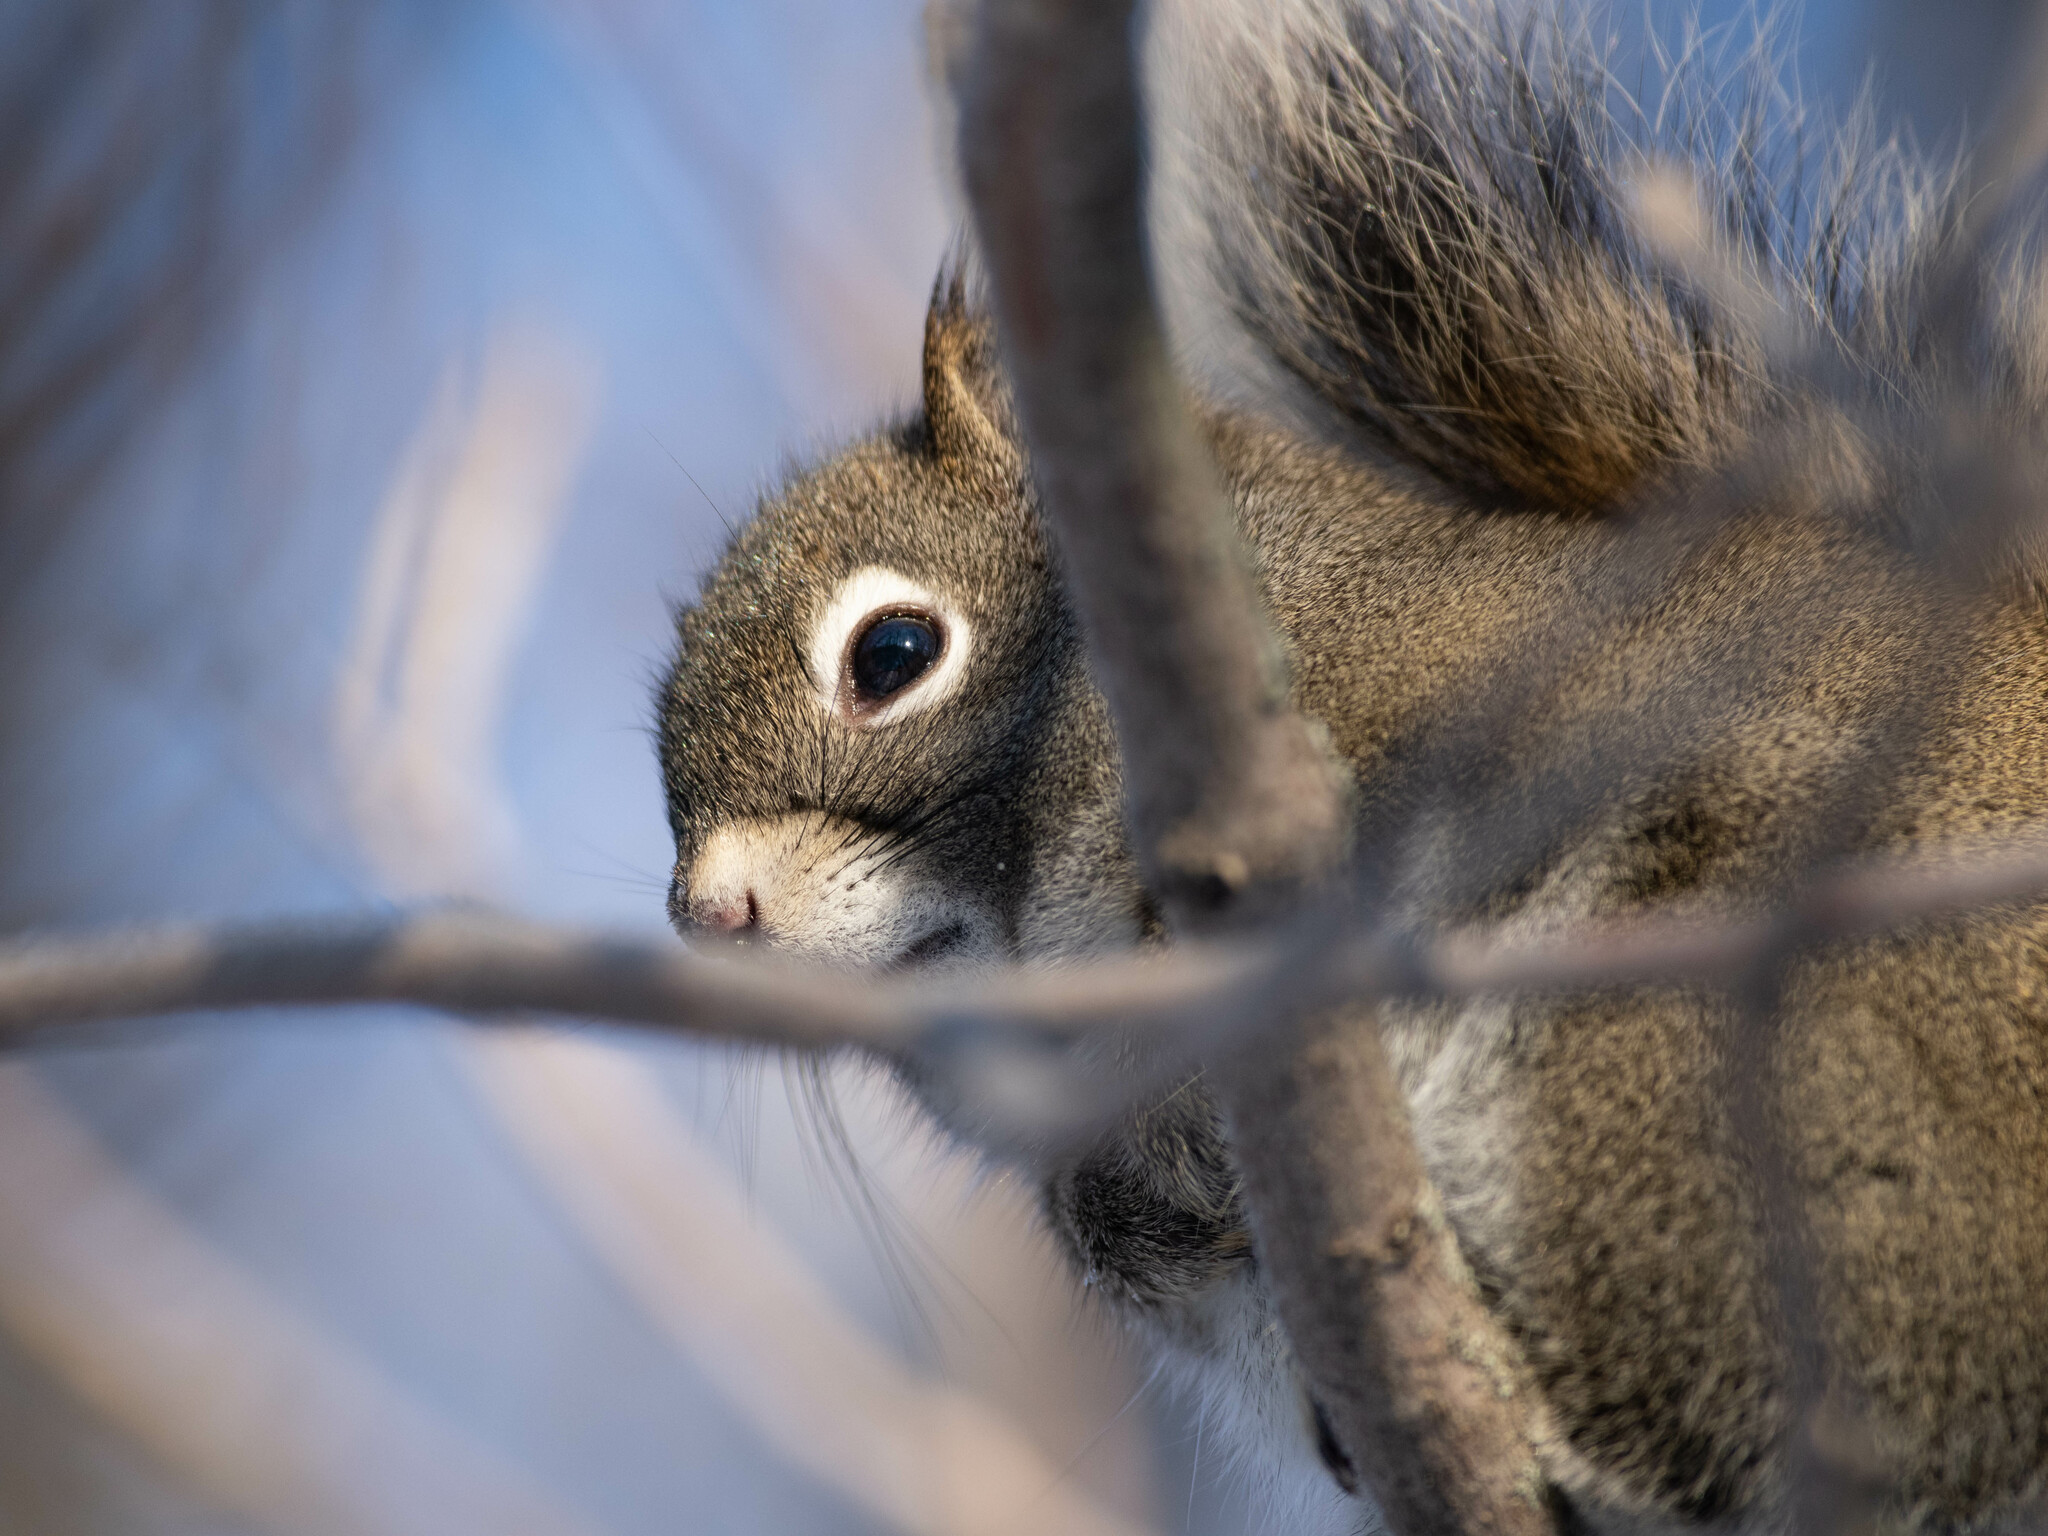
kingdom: Animalia
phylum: Chordata
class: Mammalia
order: Rodentia
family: Sciuridae
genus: Tamiasciurus
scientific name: Tamiasciurus hudsonicus
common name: Red squirrel
